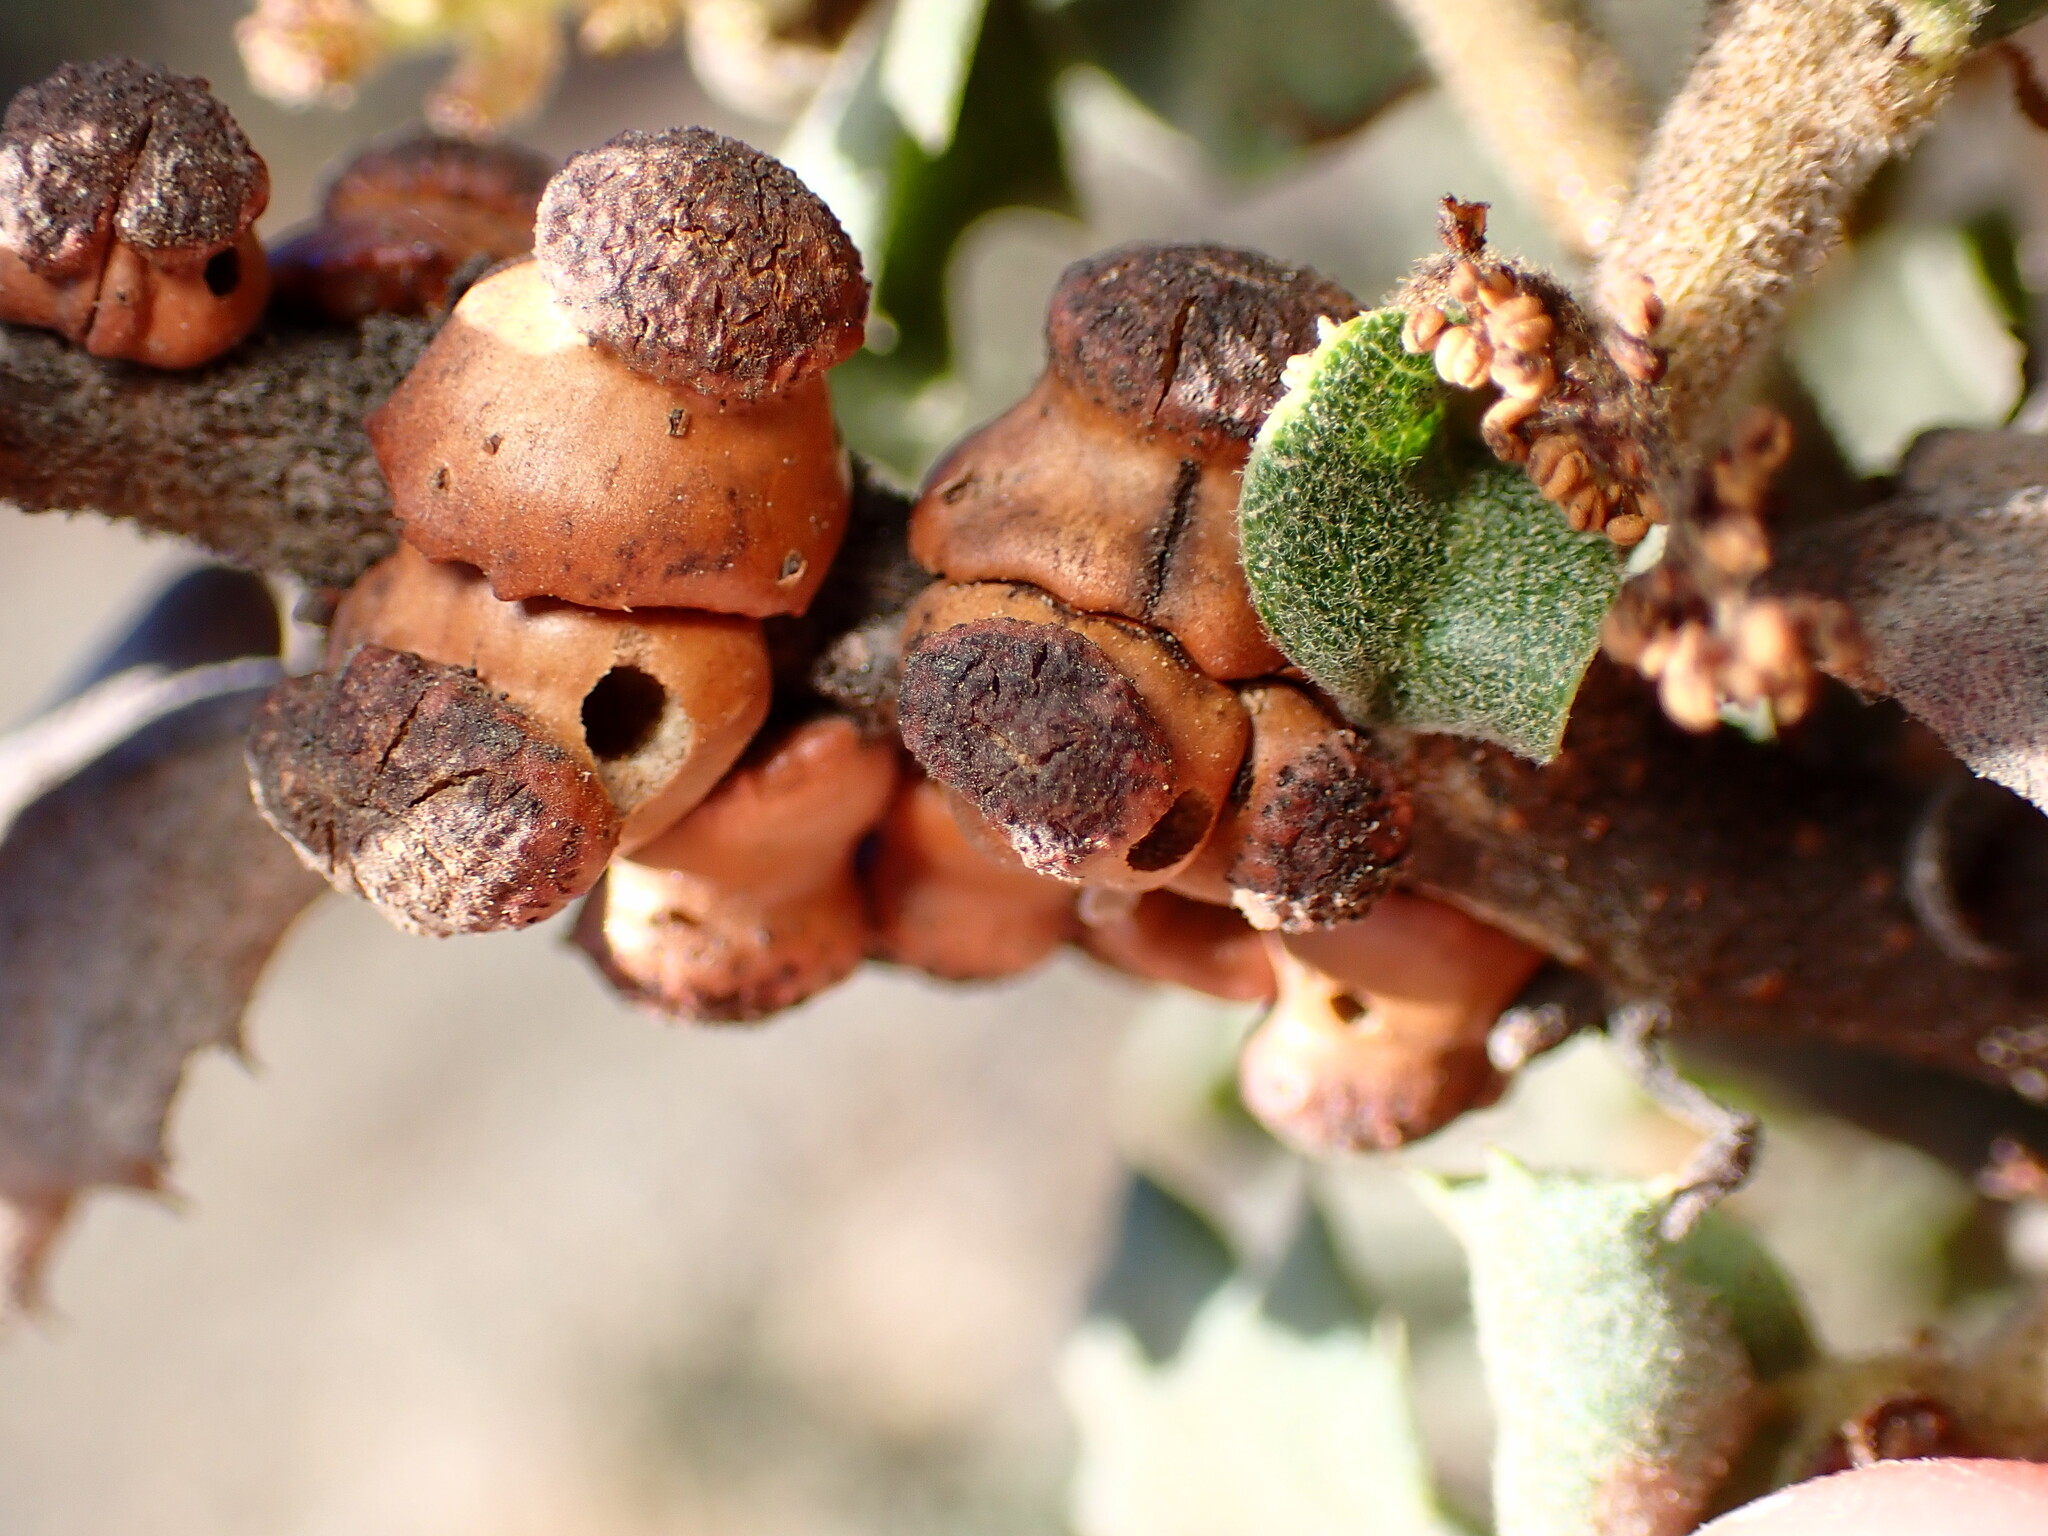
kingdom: Animalia
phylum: Arthropoda
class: Insecta
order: Hymenoptera
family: Cynipidae
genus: Disholcaspis
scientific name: Disholcaspis prehensa
